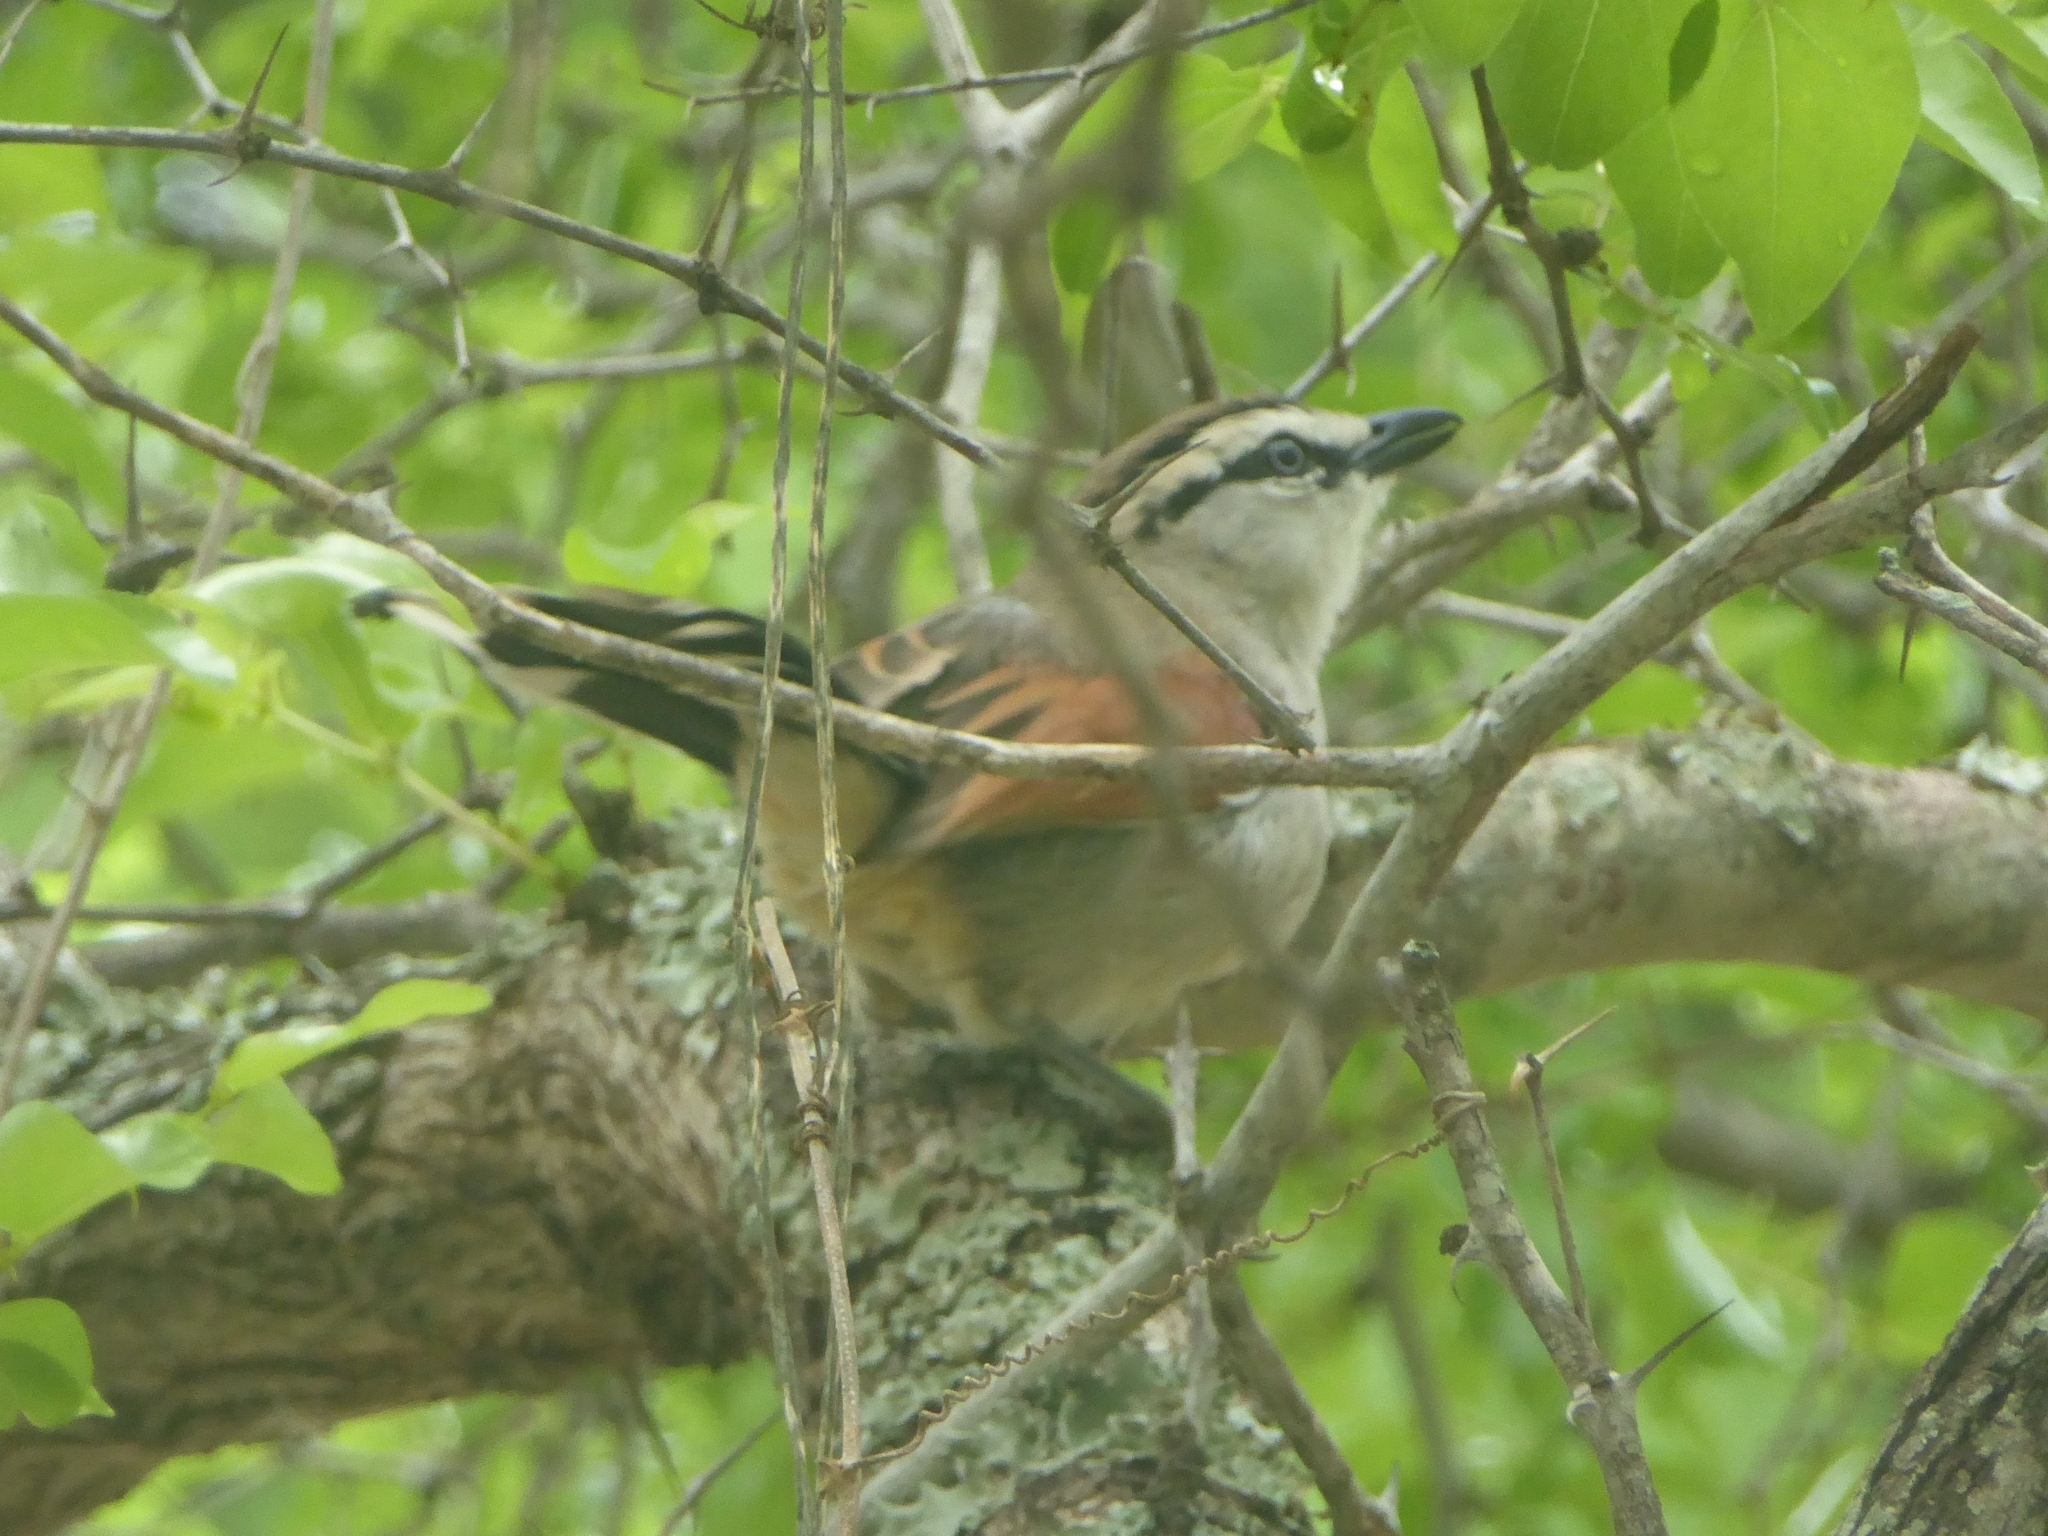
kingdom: Animalia
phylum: Chordata
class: Aves
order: Passeriformes
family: Malaconotidae
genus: Tchagra
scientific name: Tchagra australis
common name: Brown-crowned tchagra
